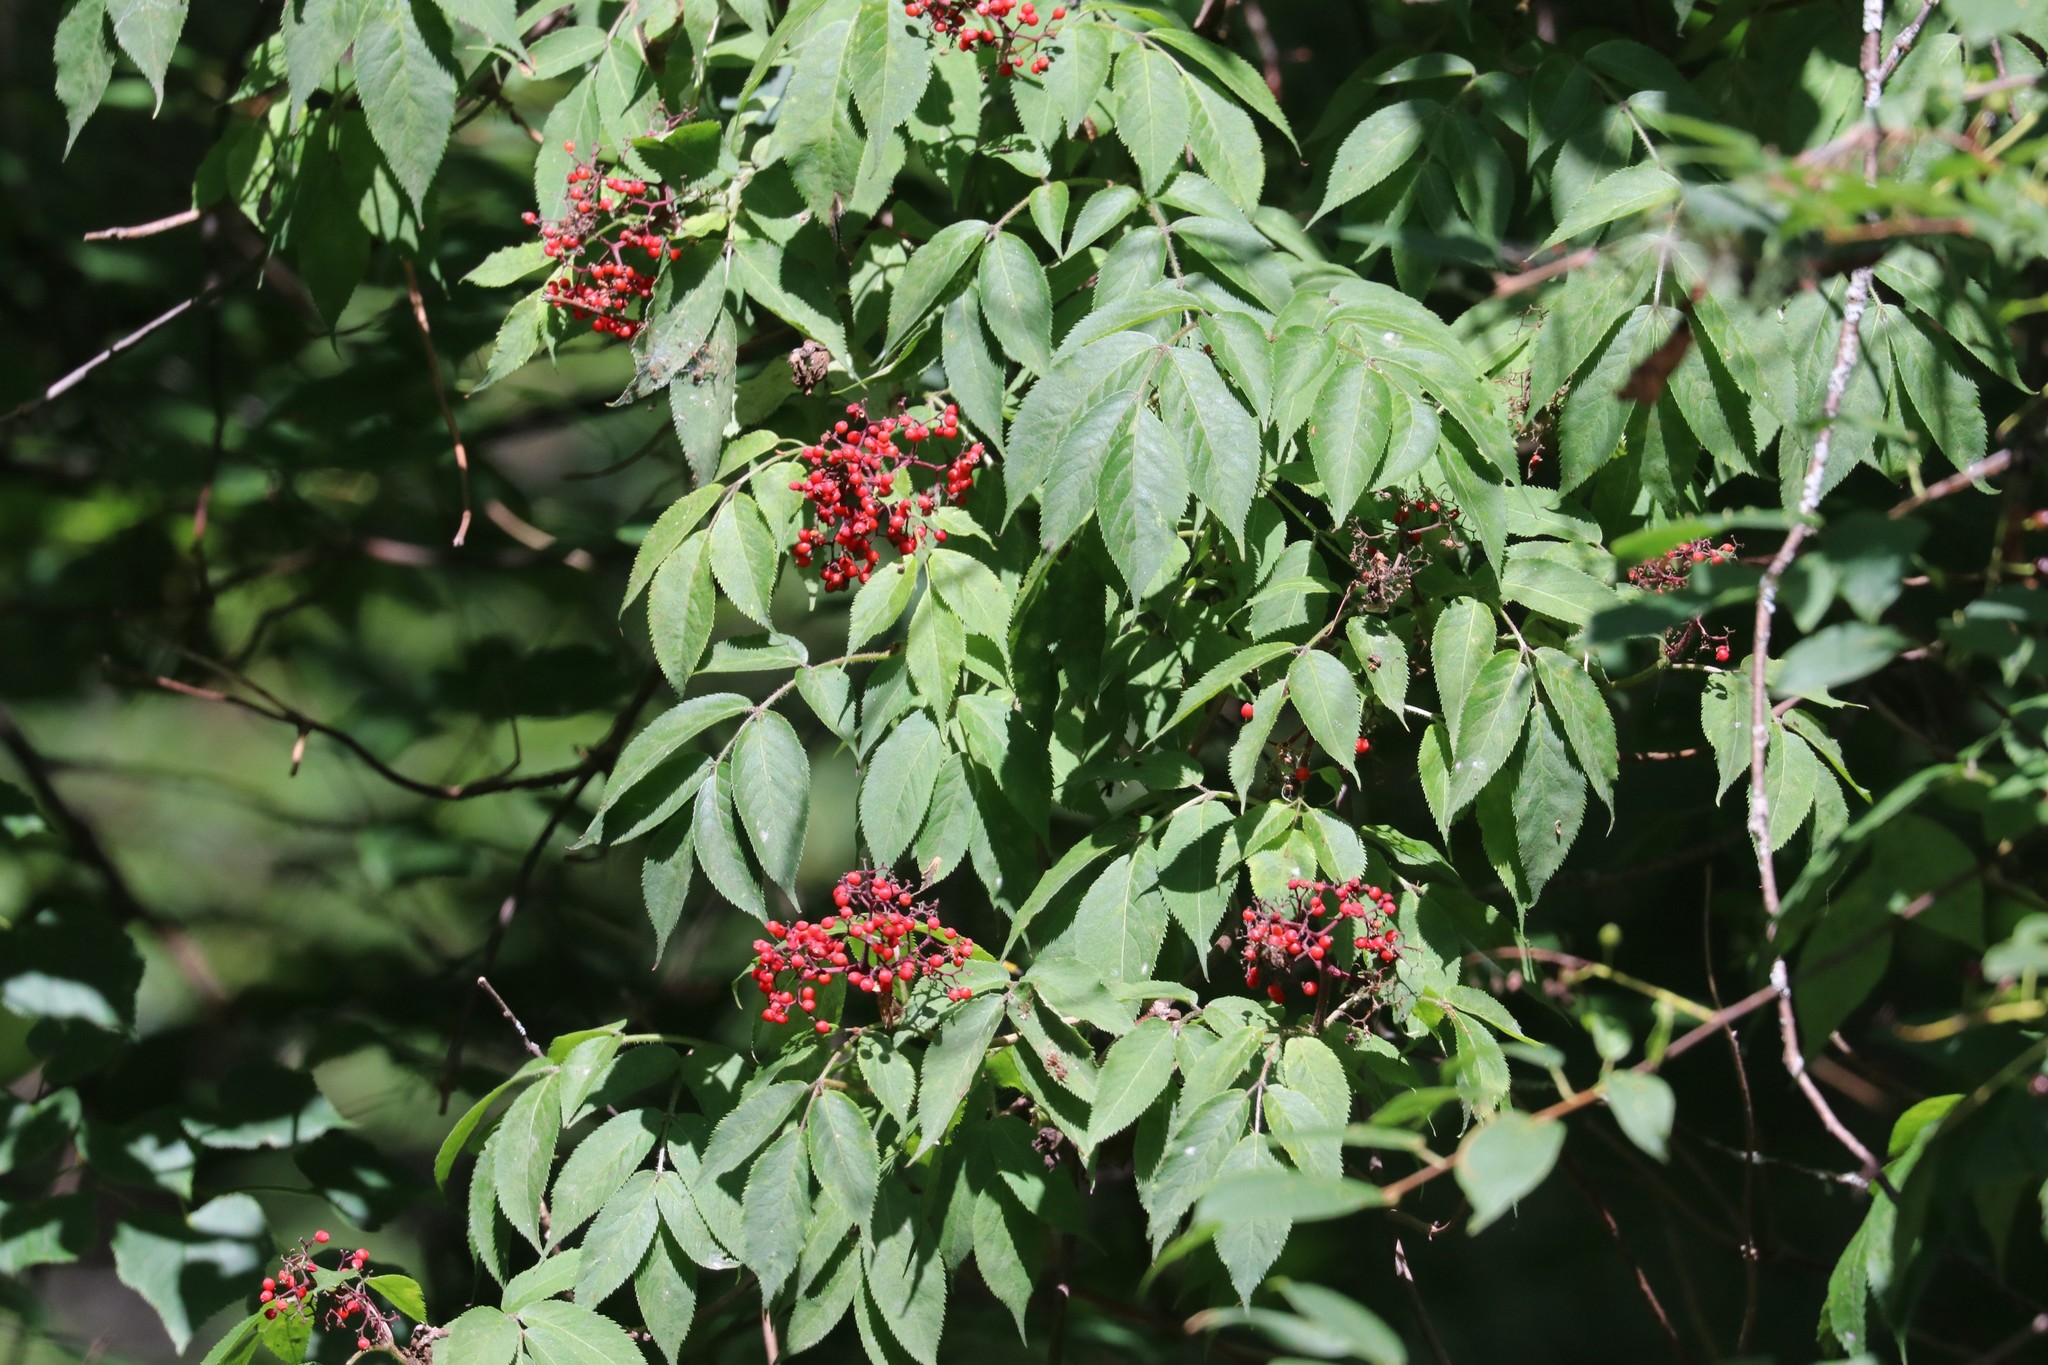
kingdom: Plantae
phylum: Tracheophyta
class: Magnoliopsida
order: Dipsacales
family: Viburnaceae
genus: Sambucus
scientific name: Sambucus racemosa
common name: Red-berried elder
